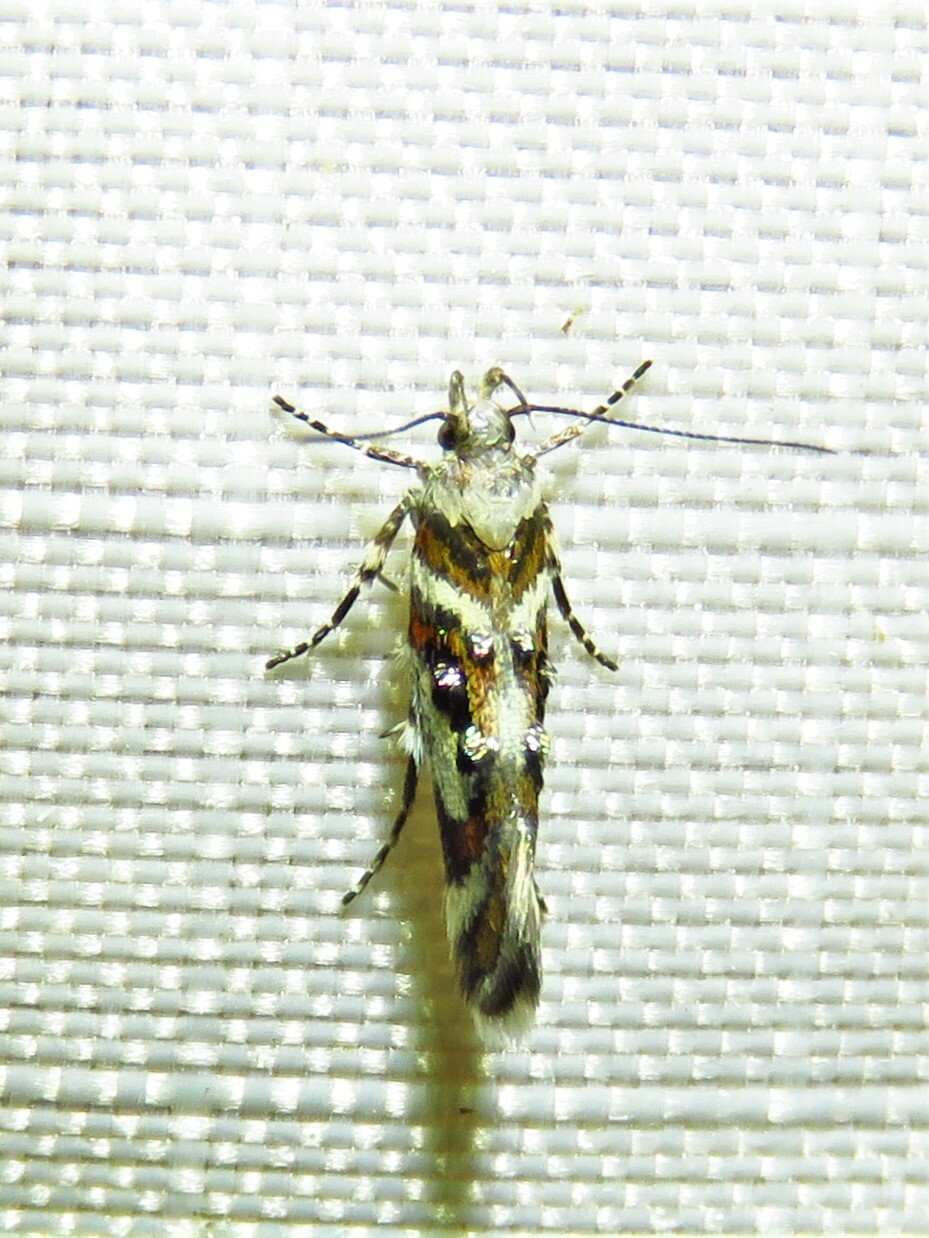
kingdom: Animalia
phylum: Arthropoda
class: Insecta
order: Lepidoptera
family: Gelechiidae
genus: Aristotelia
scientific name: Aristotelia elegantella
